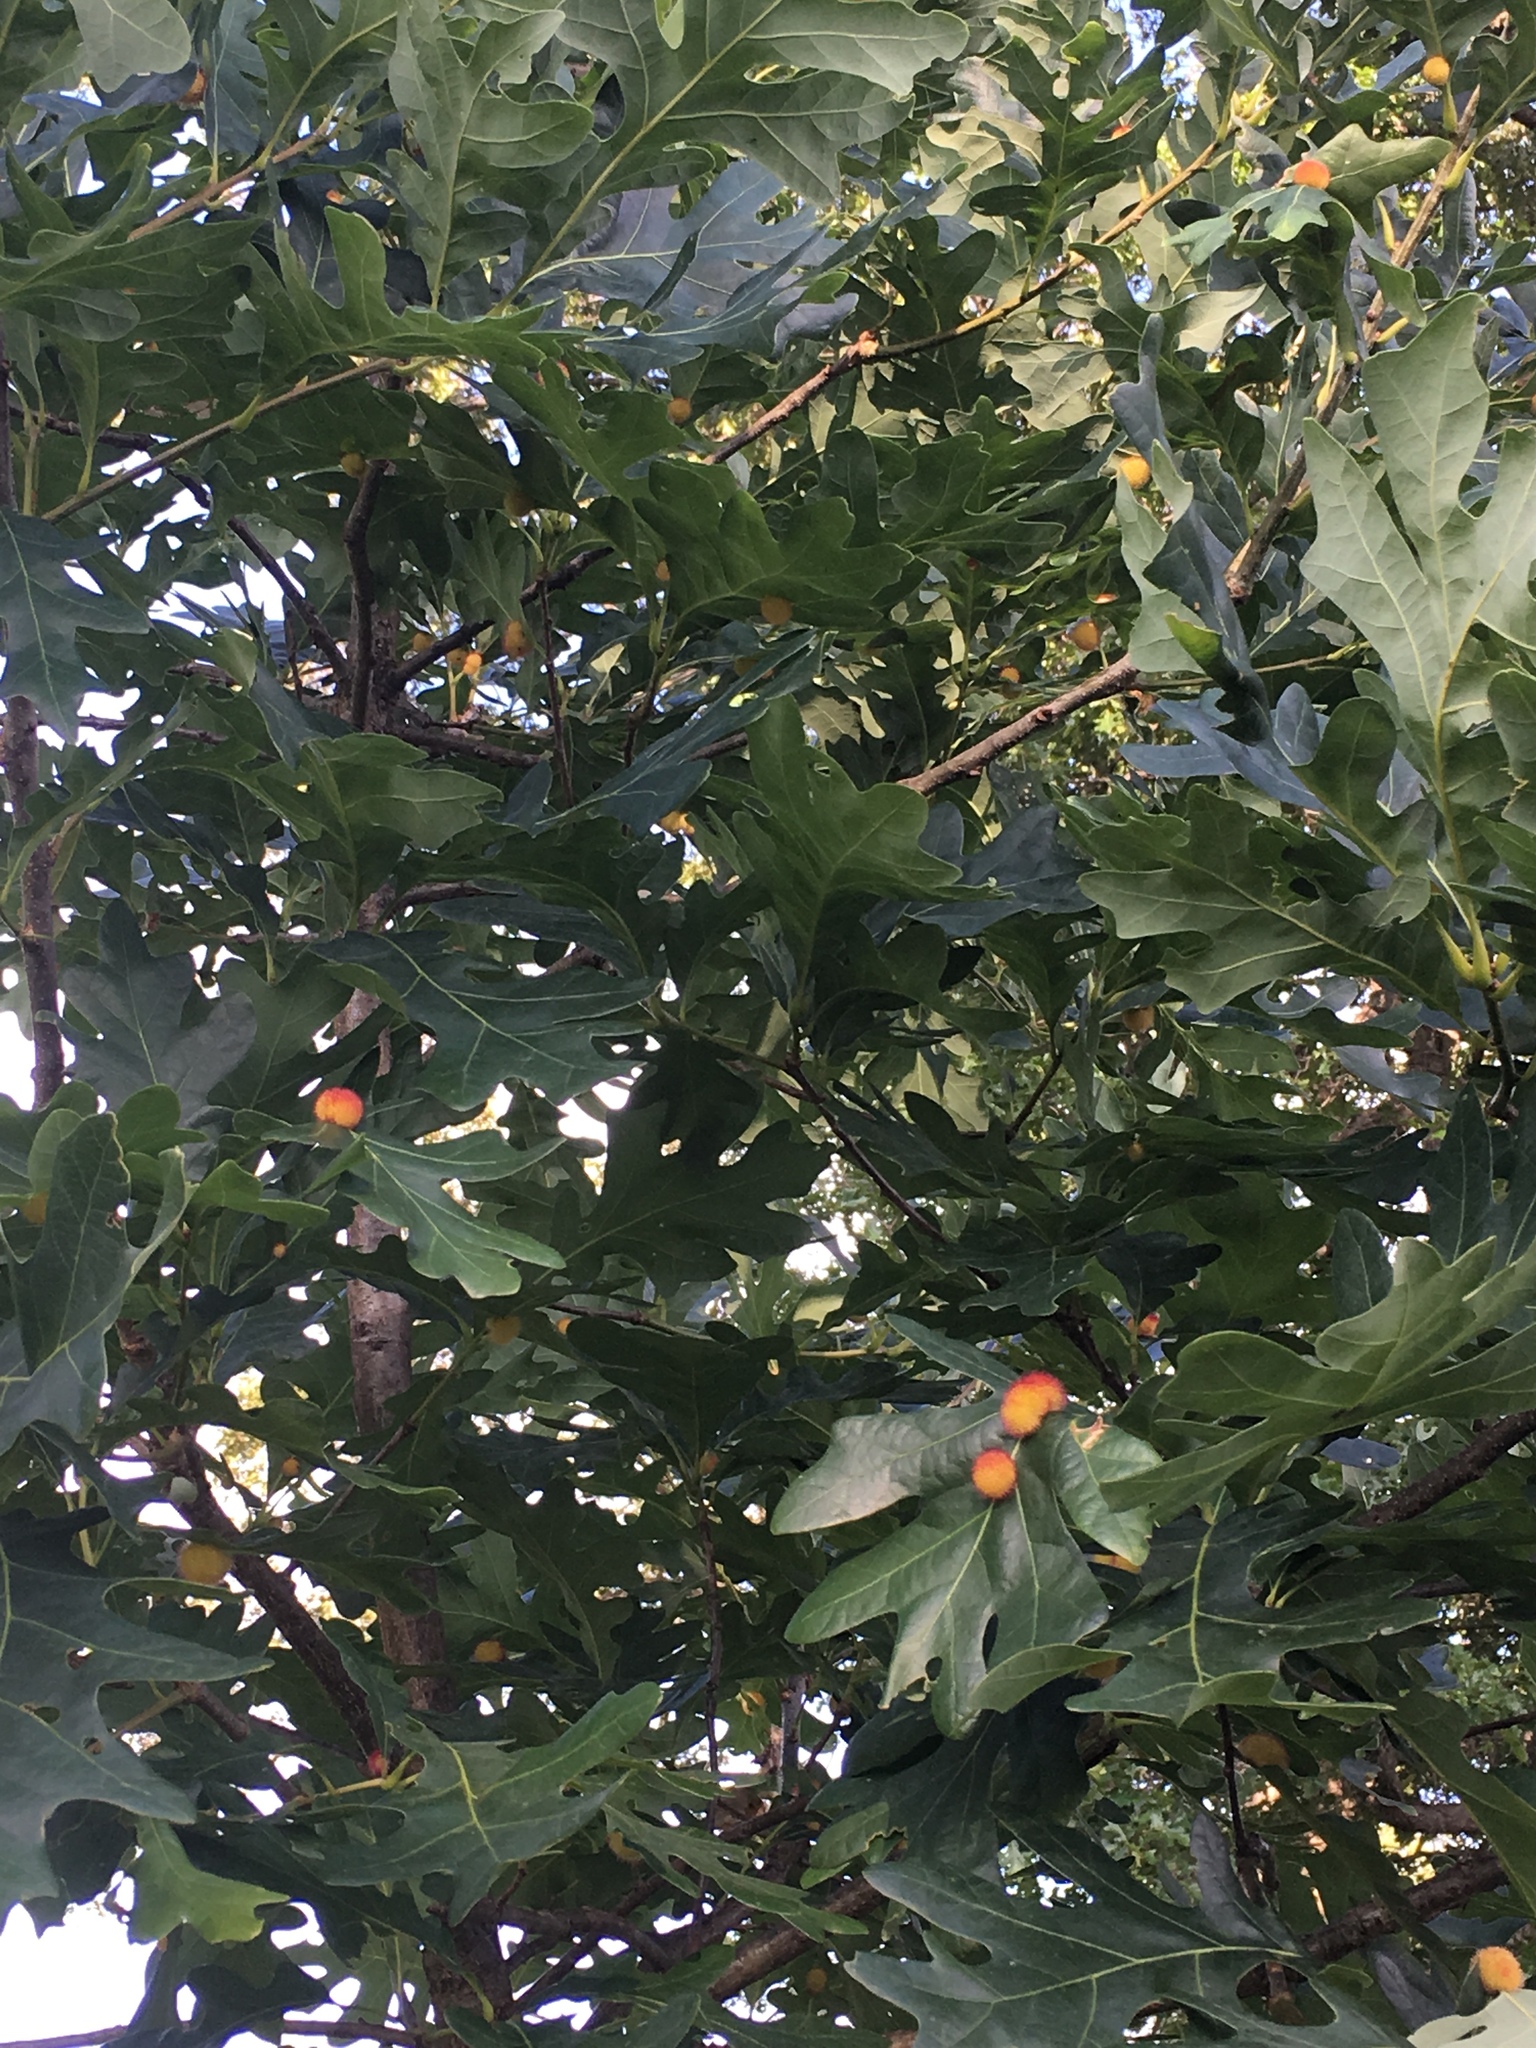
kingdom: Animalia
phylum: Arthropoda
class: Insecta
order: Hymenoptera
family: Cynipidae
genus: Acraspis
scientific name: Acraspis erinacei
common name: Hedgehog gall wasp
